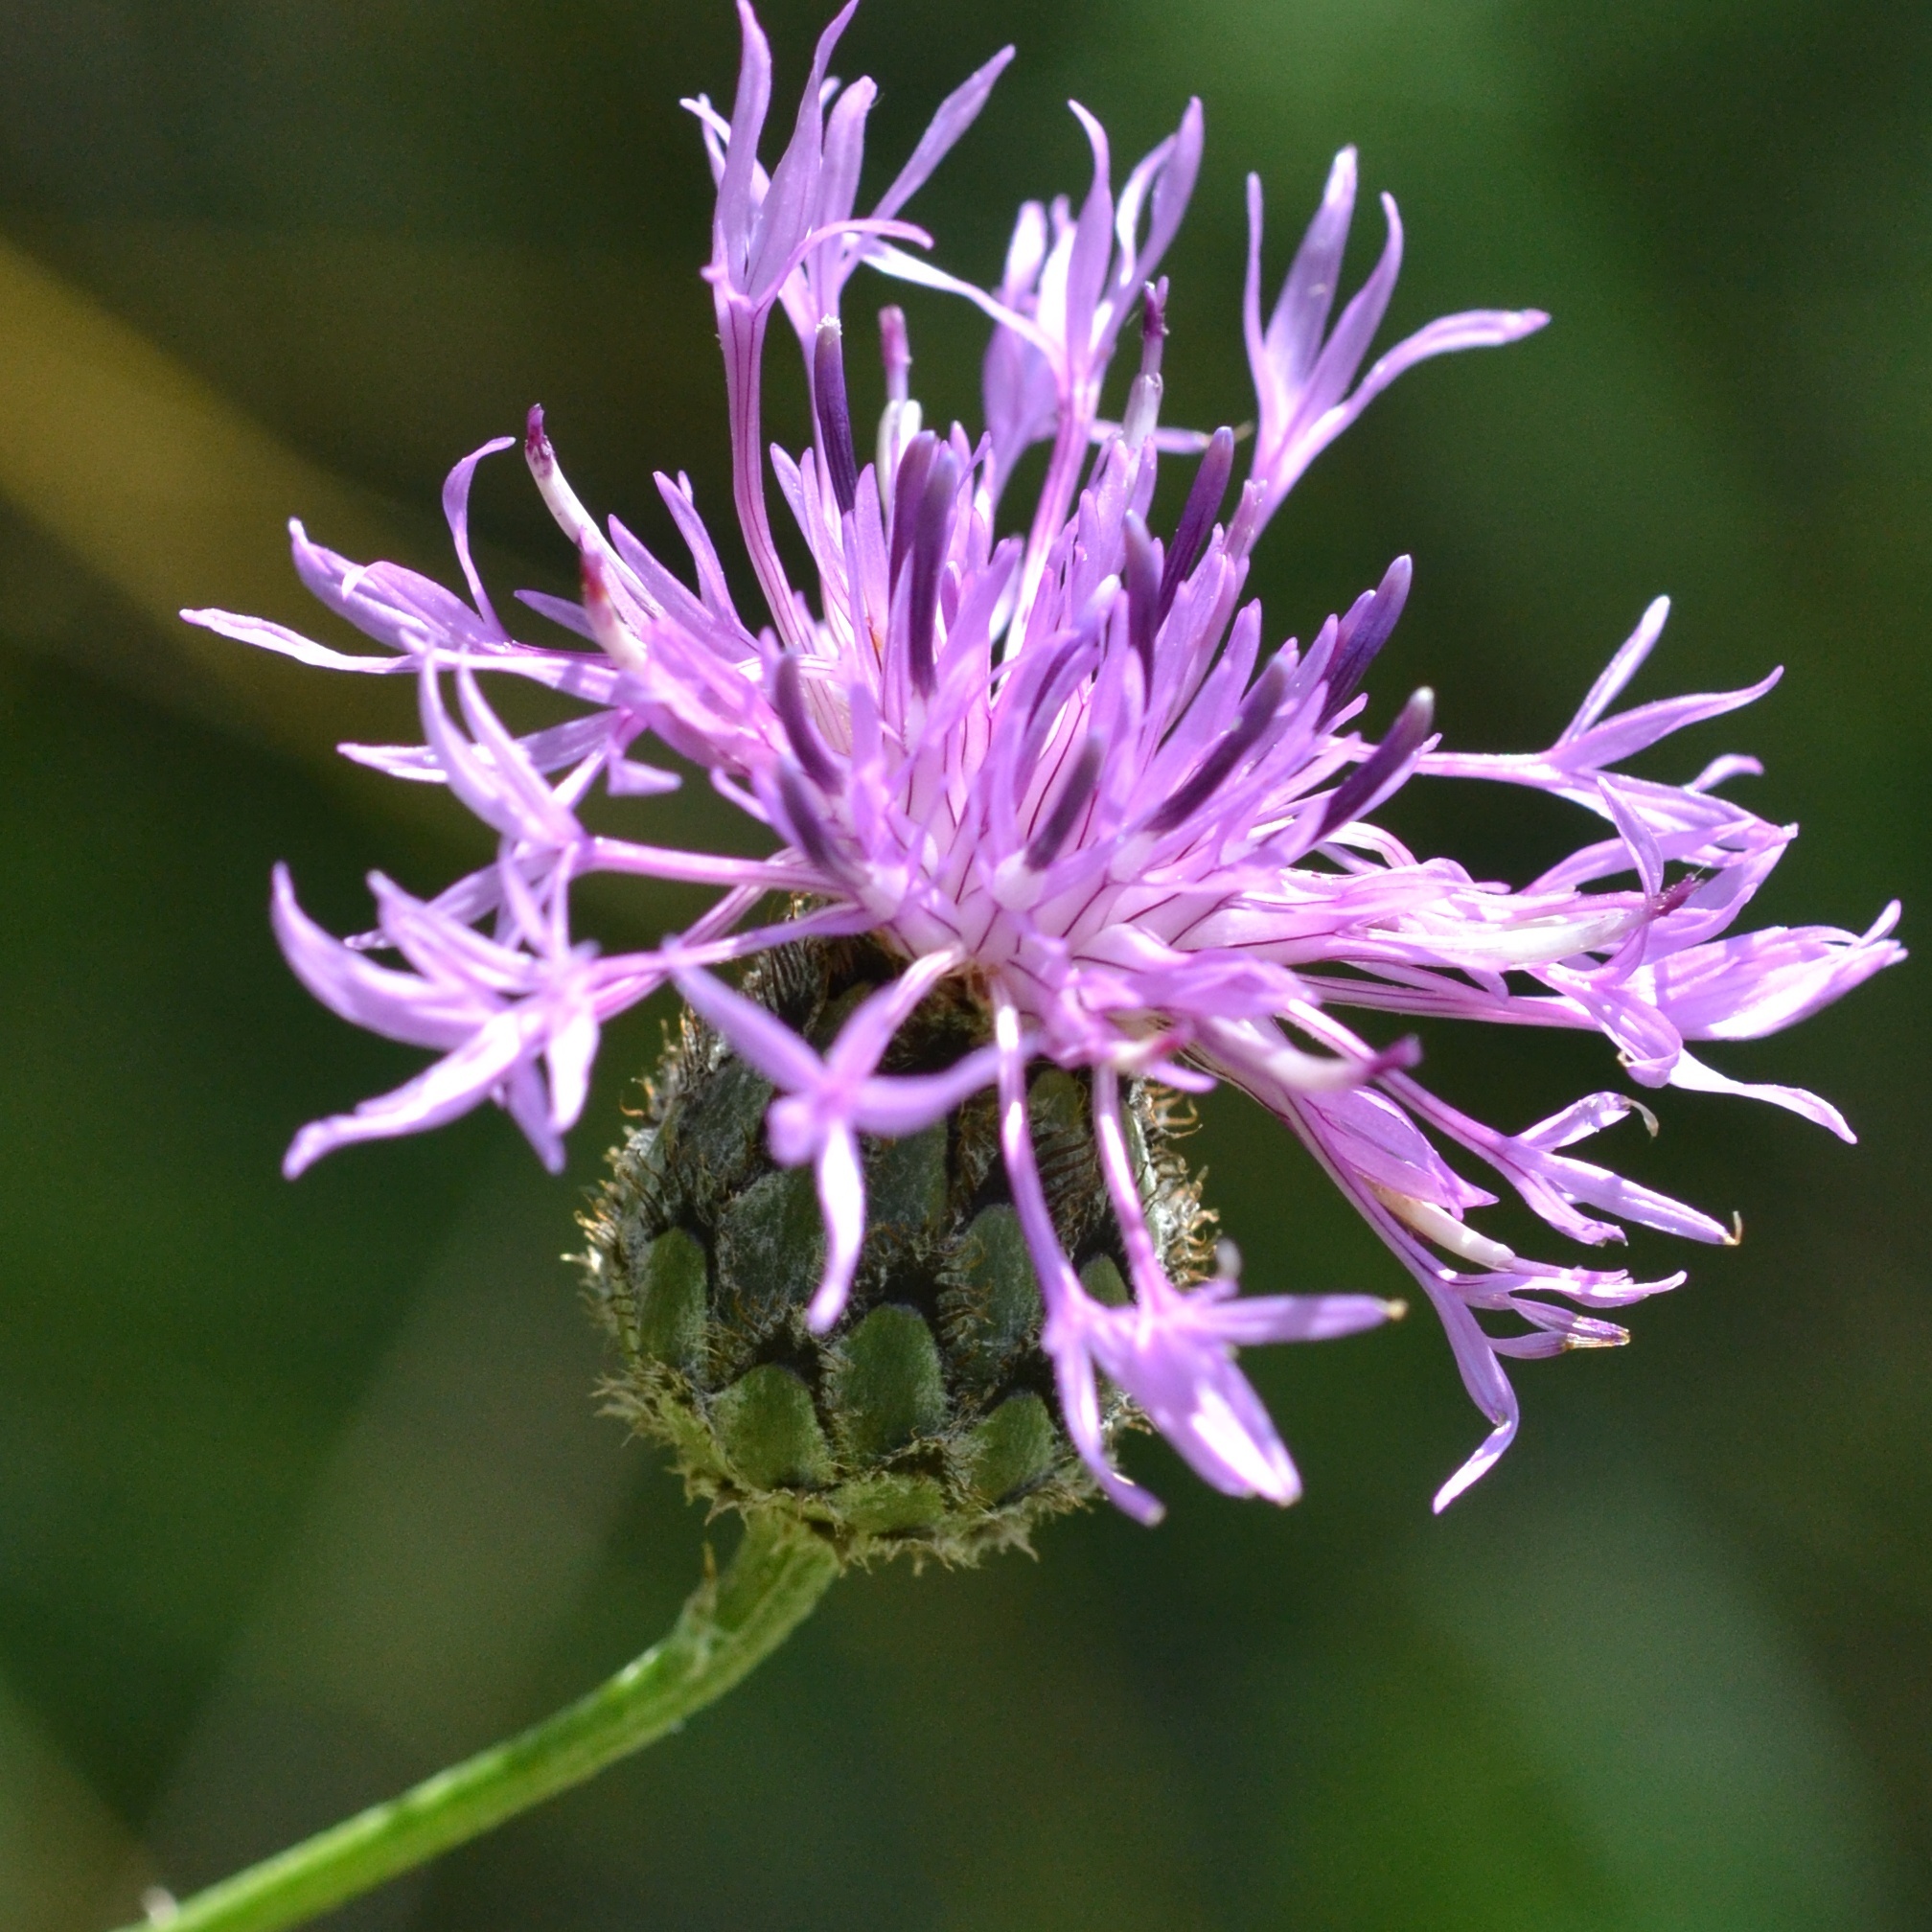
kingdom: Plantae
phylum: Tracheophyta
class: Magnoliopsida
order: Asterales
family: Asteraceae
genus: Centaurea
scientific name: Centaurea scabiosa
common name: Greater knapweed
